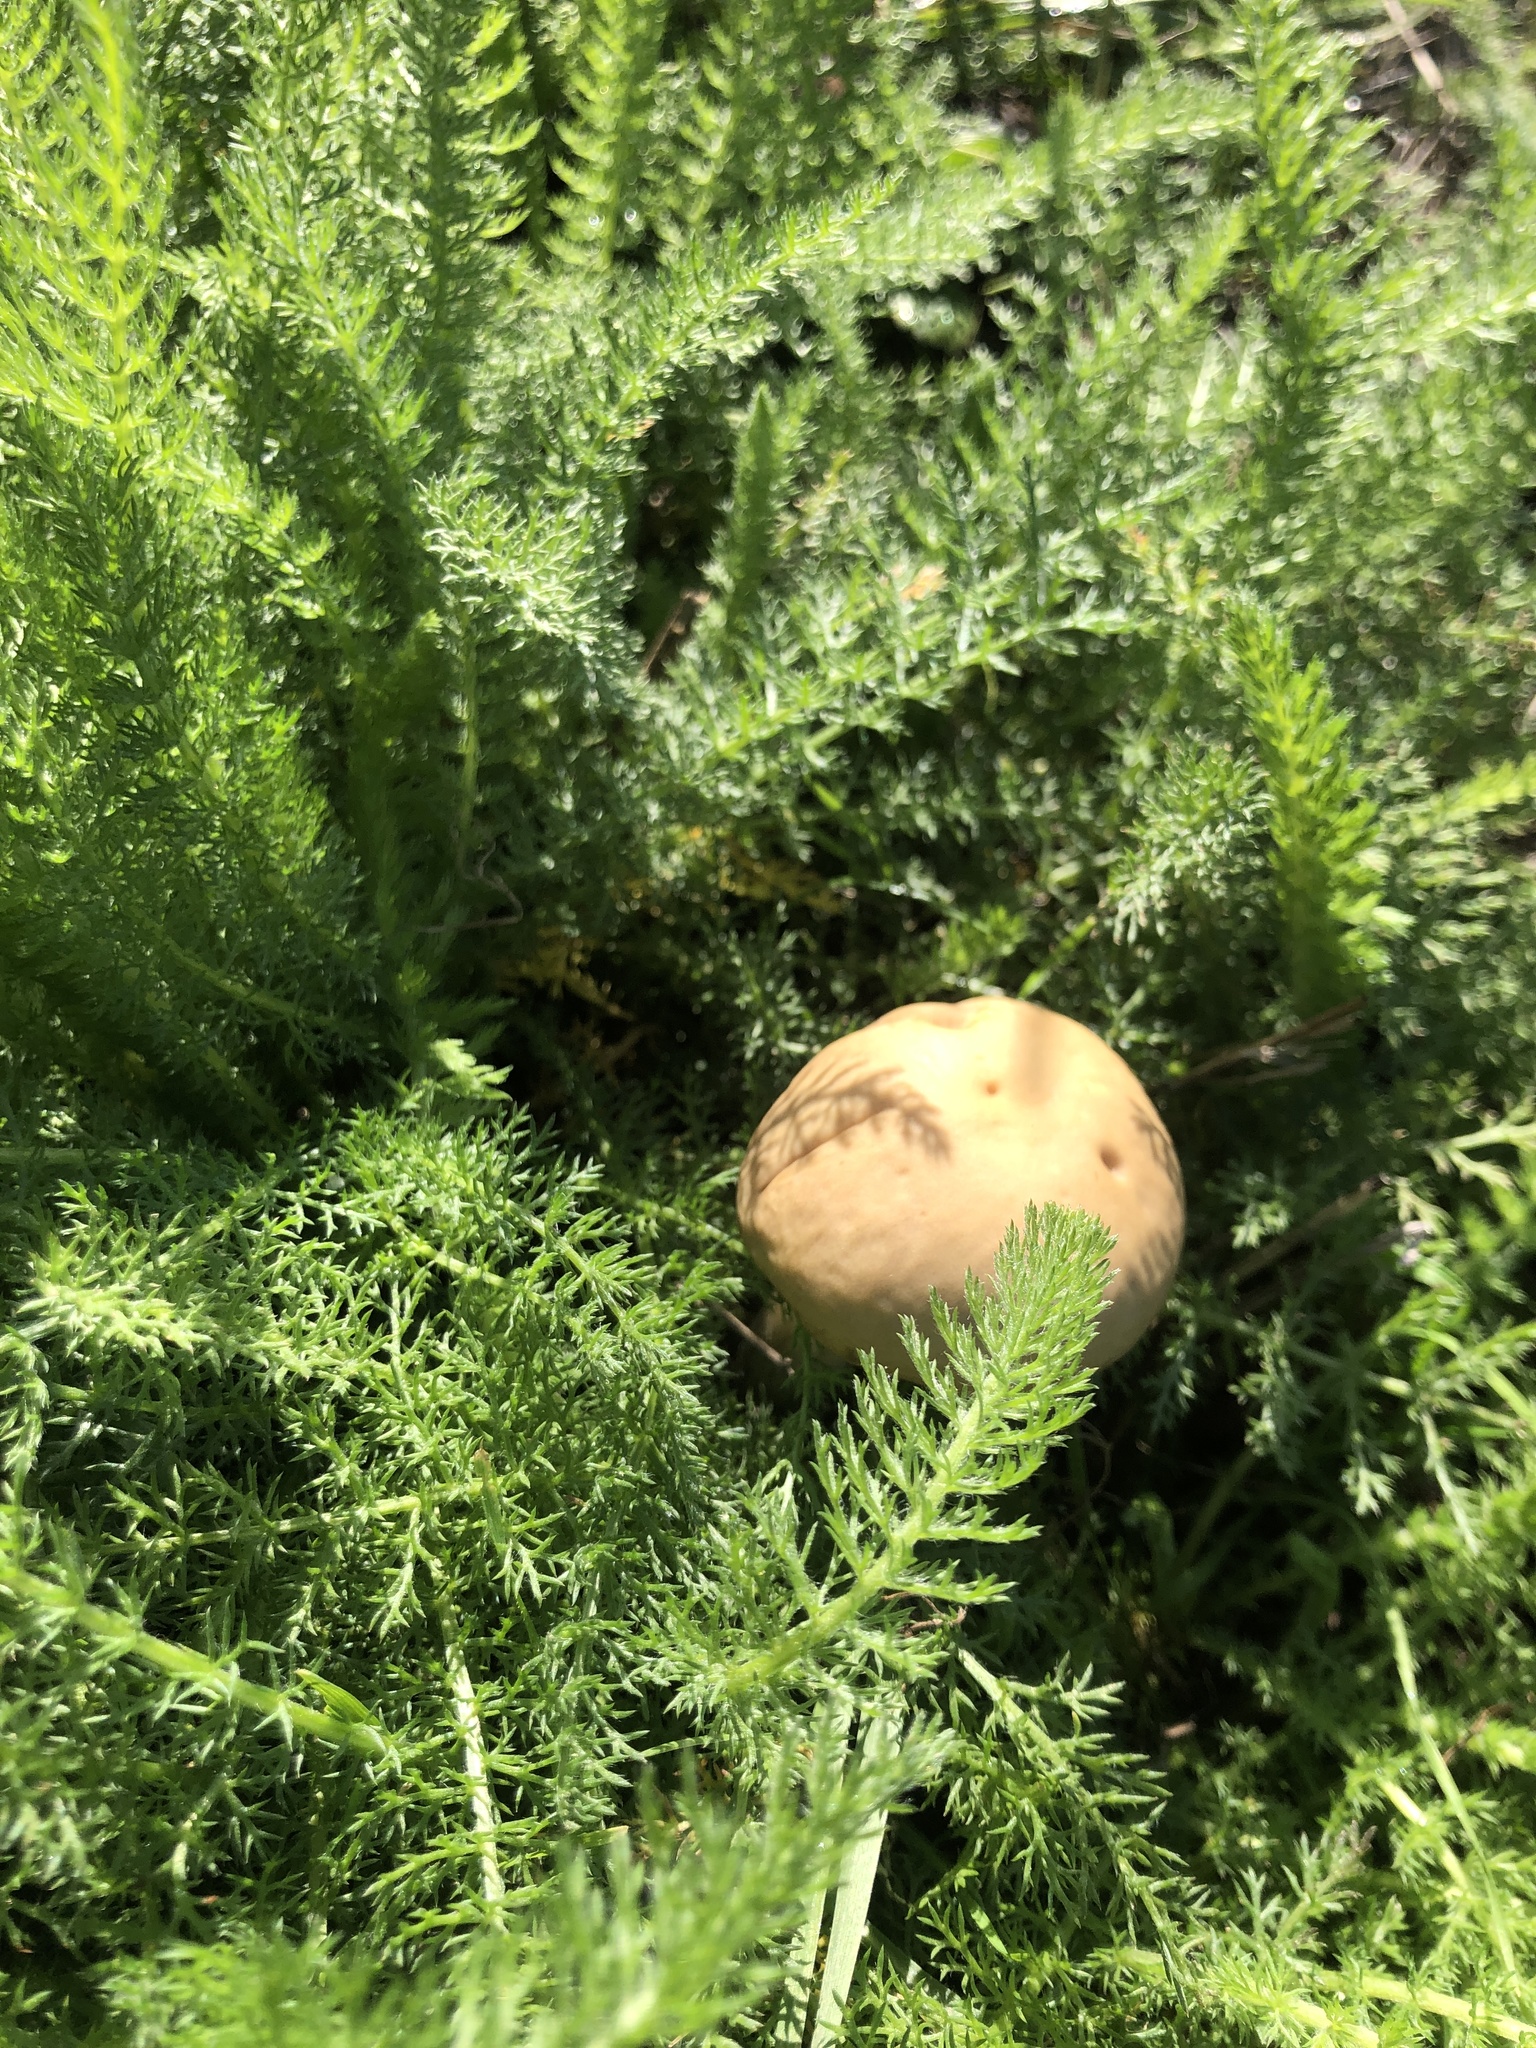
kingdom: Fungi
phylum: Basidiomycota
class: Agaricomycetes
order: Agaricales
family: Strophariaceae
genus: Agrocybe
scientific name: Agrocybe praecox
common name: Spring fieldcap
